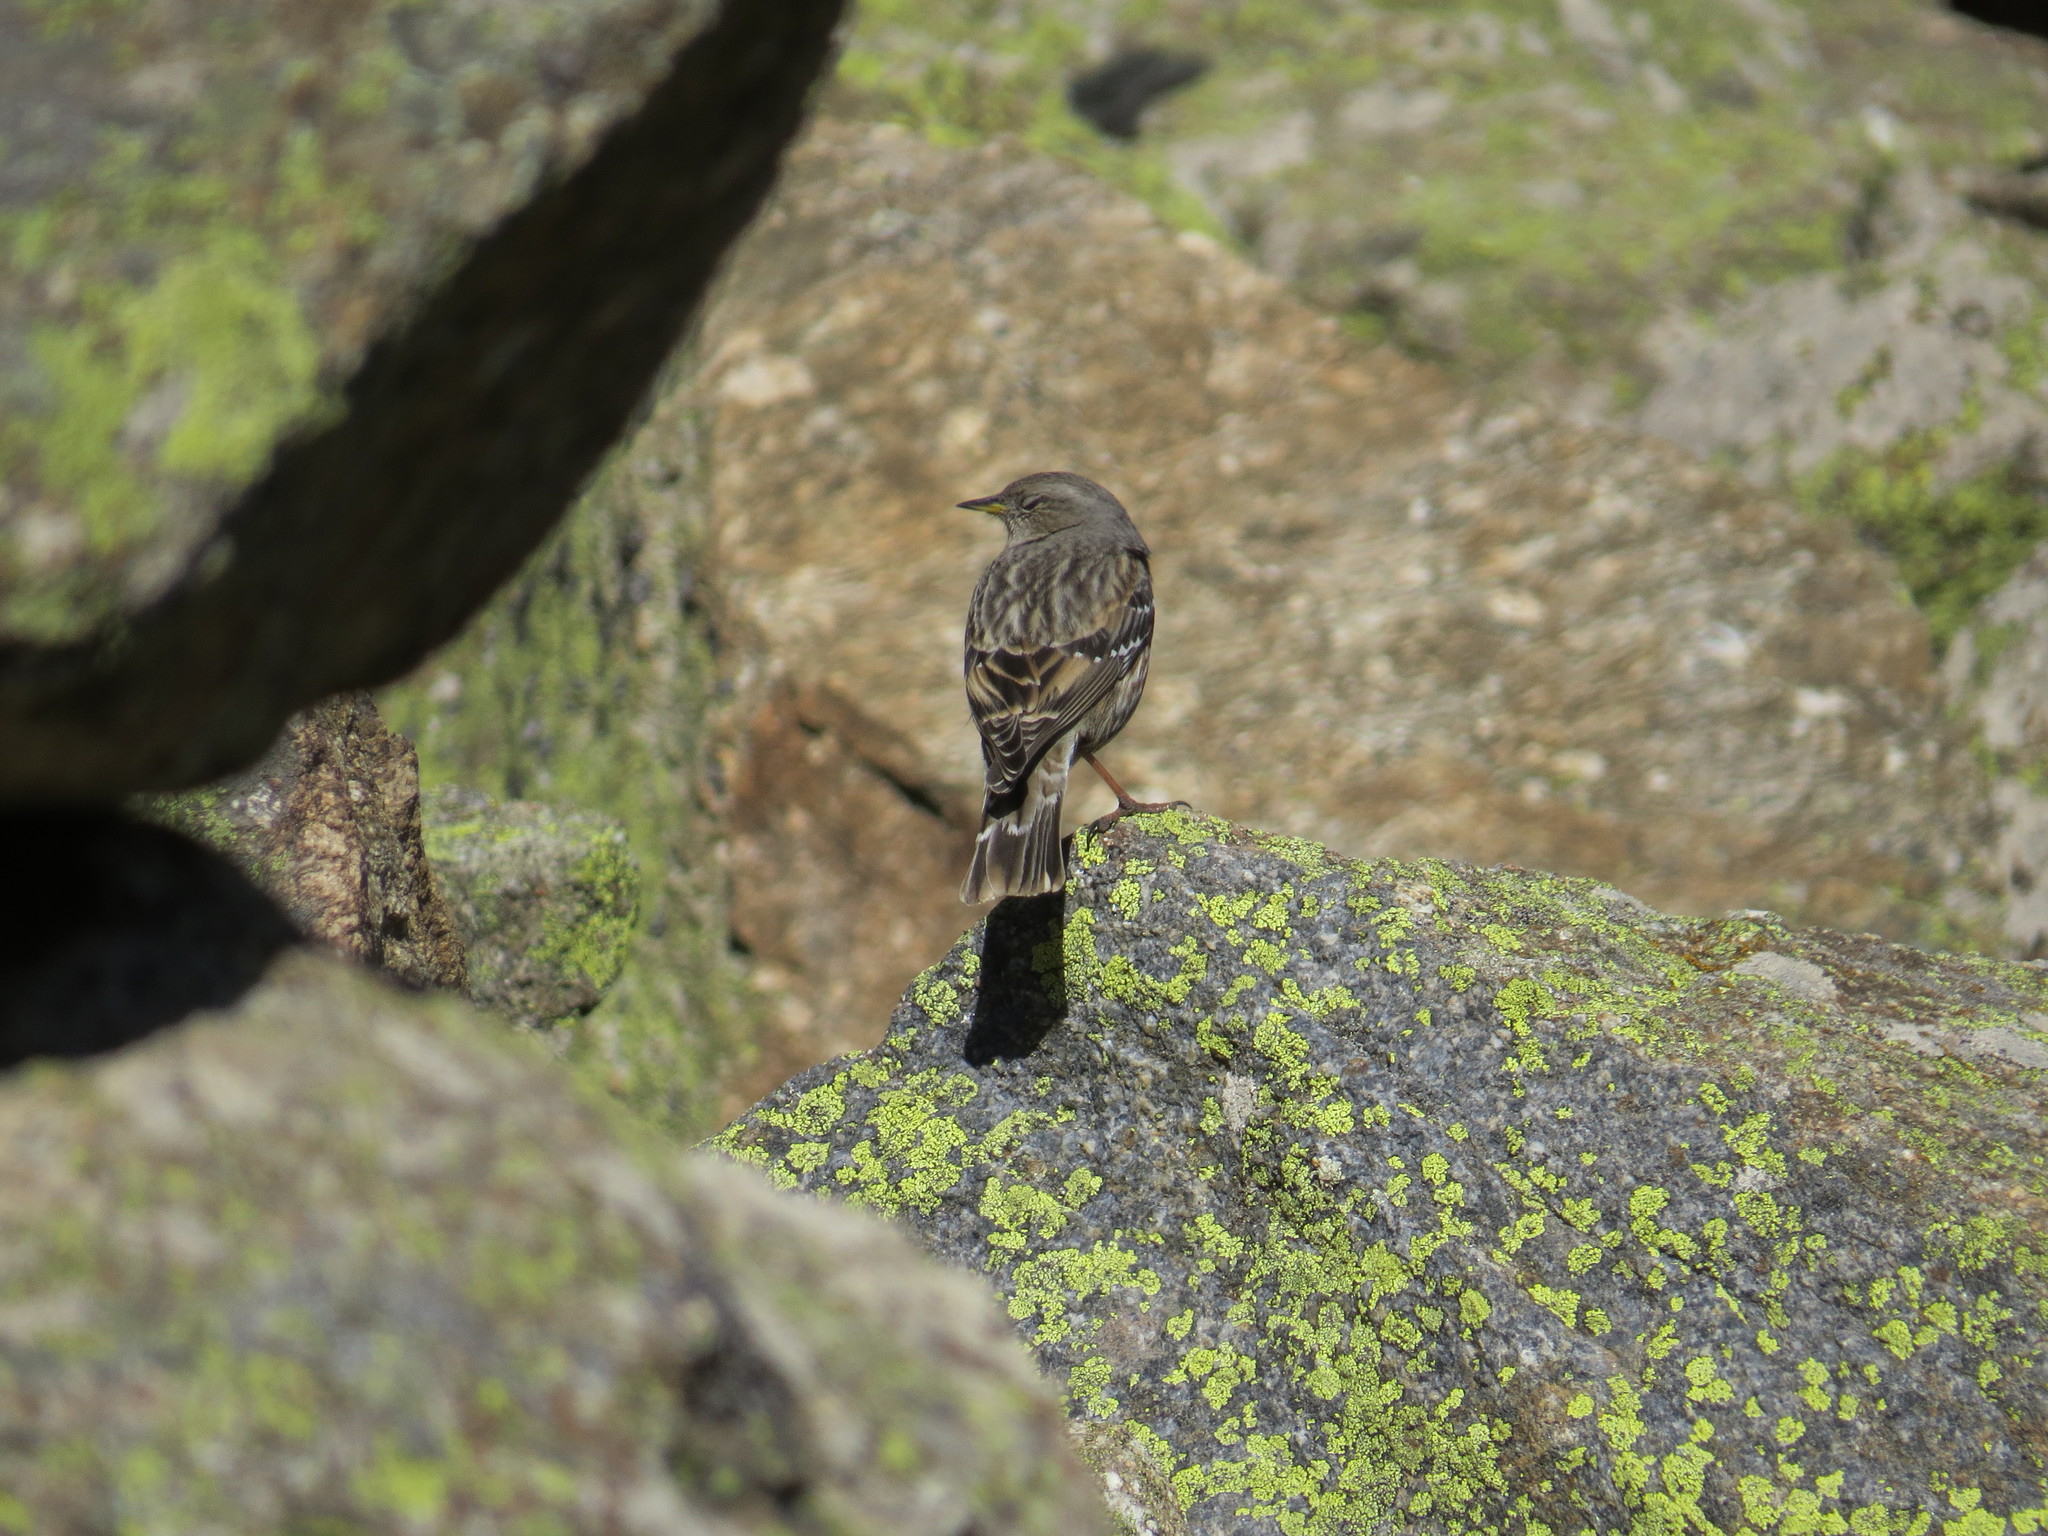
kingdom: Animalia
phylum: Chordata
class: Aves
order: Passeriformes
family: Prunellidae
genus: Prunella
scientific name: Prunella collaris
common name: Alpine accentor
